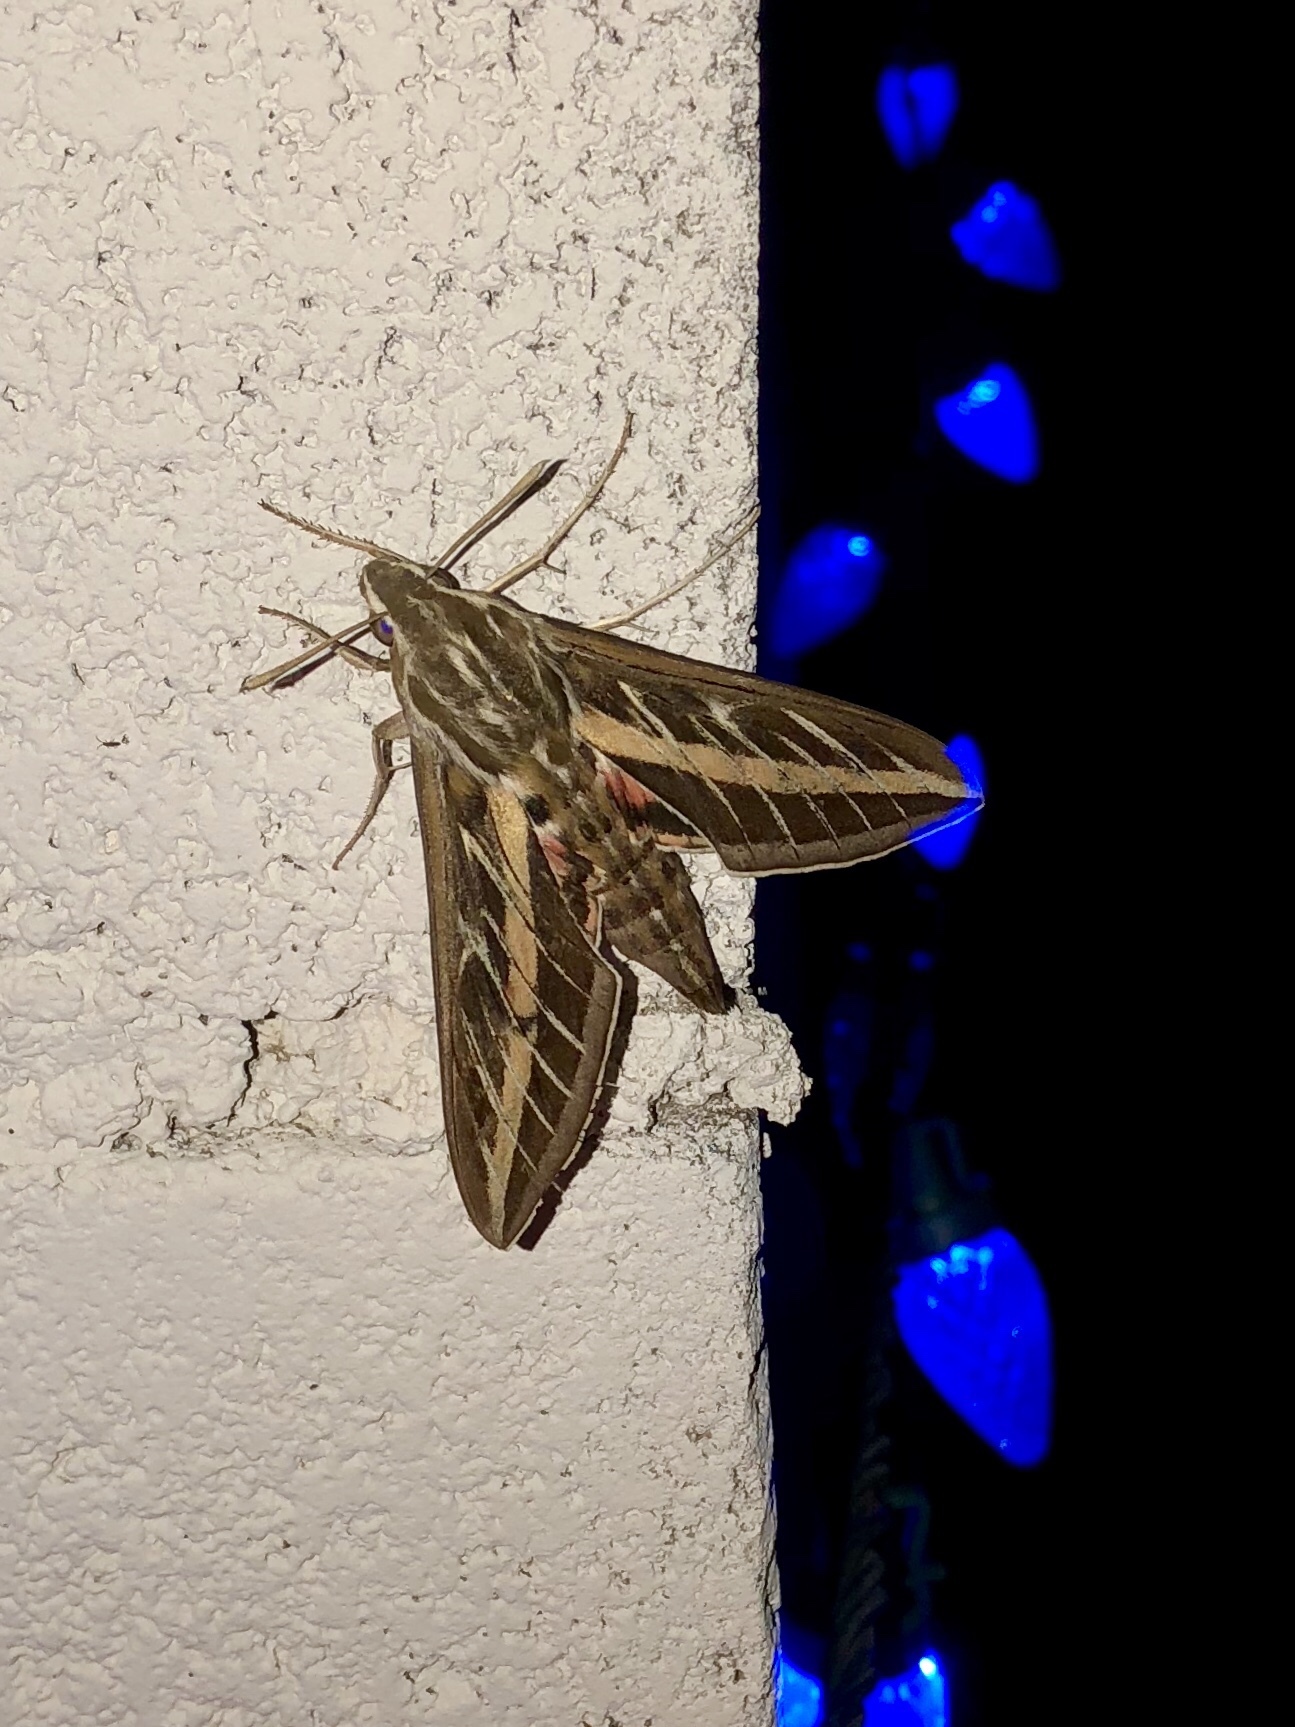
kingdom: Animalia
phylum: Arthropoda
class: Insecta
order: Lepidoptera
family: Sphingidae
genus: Hyles
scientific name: Hyles lineata
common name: White-lined sphinx
